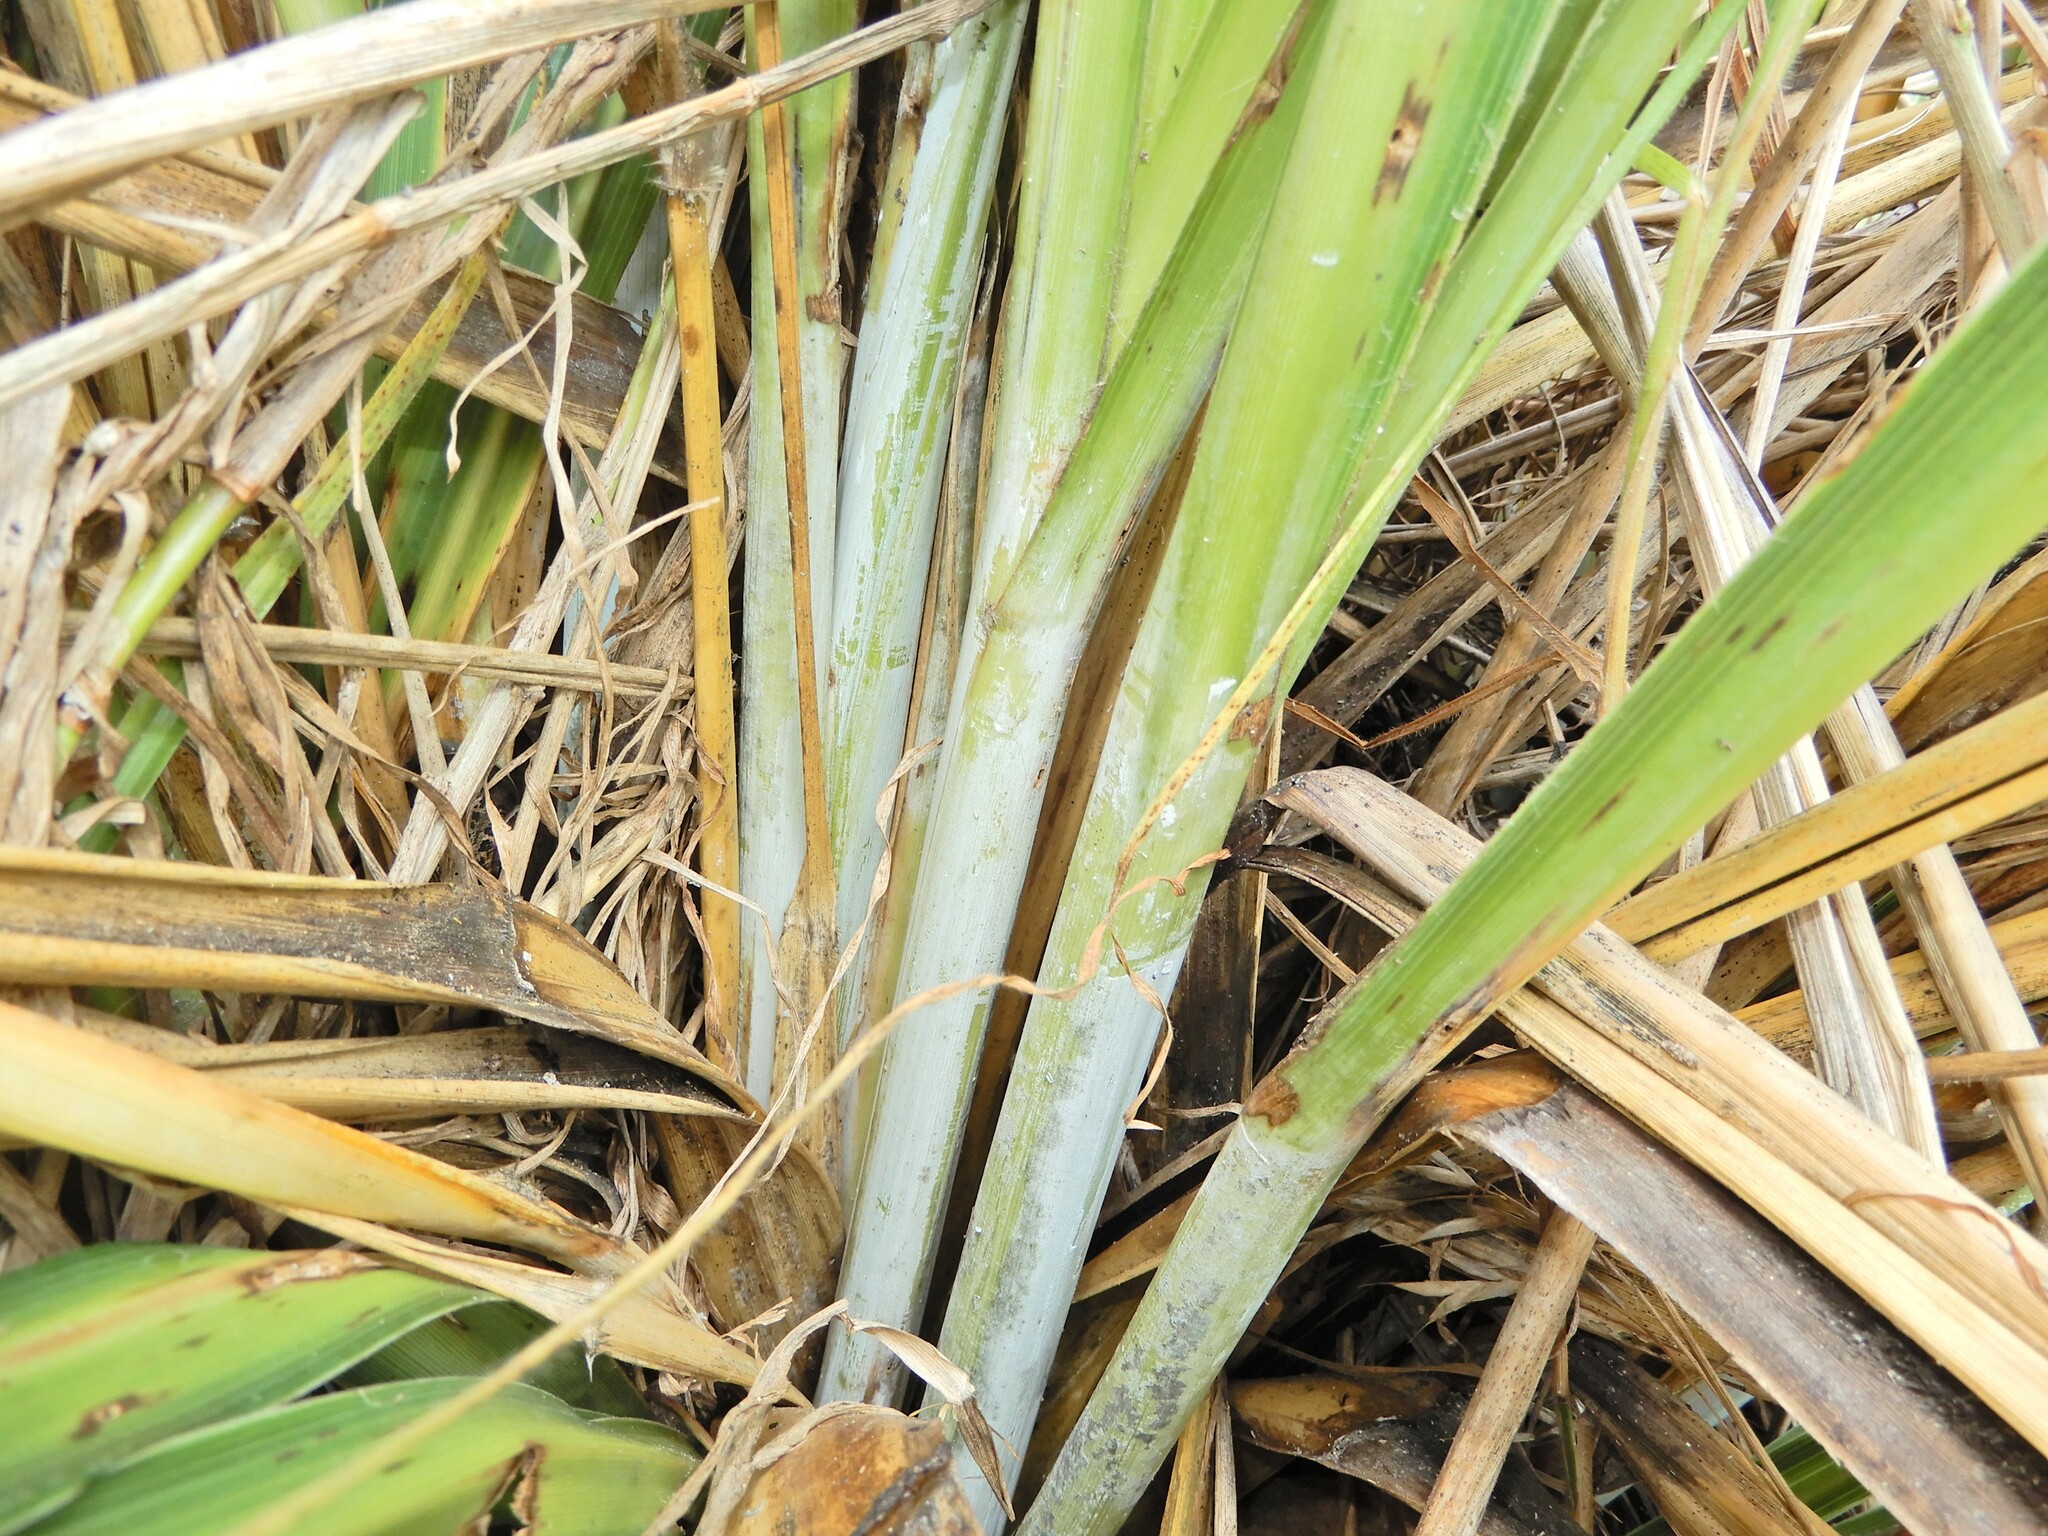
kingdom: Plantae
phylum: Tracheophyta
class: Liliopsida
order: Poales
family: Poaceae
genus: Austroderia
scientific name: Austroderia toetoe
